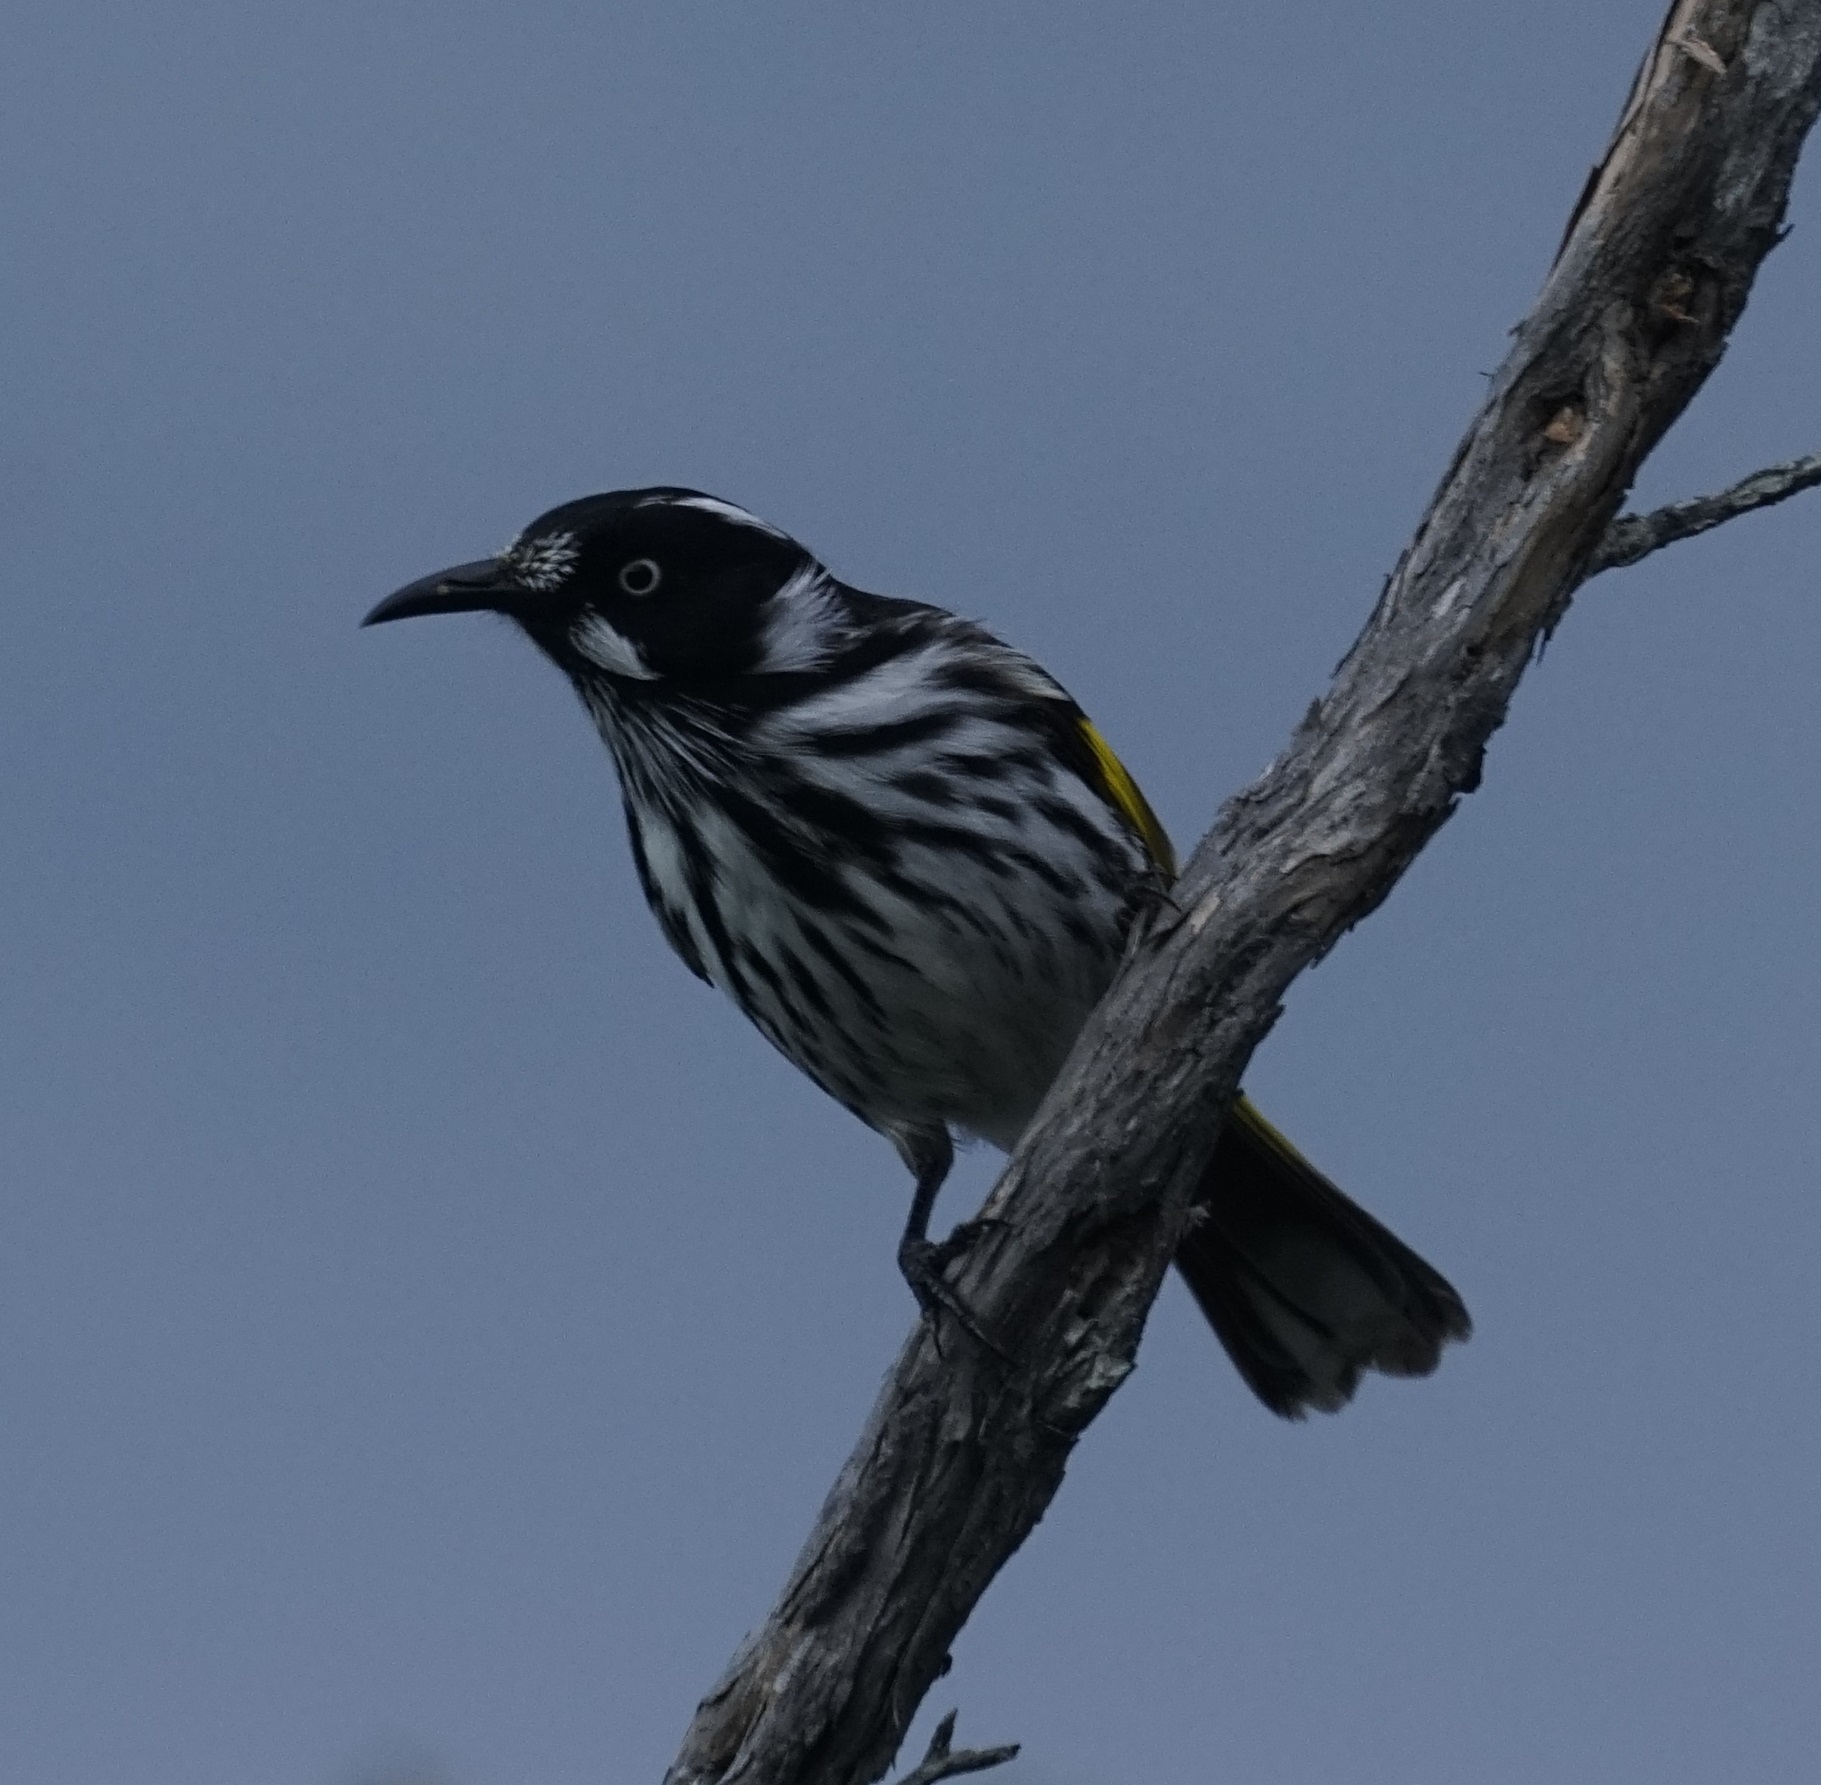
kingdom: Animalia
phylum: Chordata
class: Aves
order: Passeriformes
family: Meliphagidae
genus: Phylidonyris
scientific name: Phylidonyris novaehollandiae
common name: New holland honeyeater
